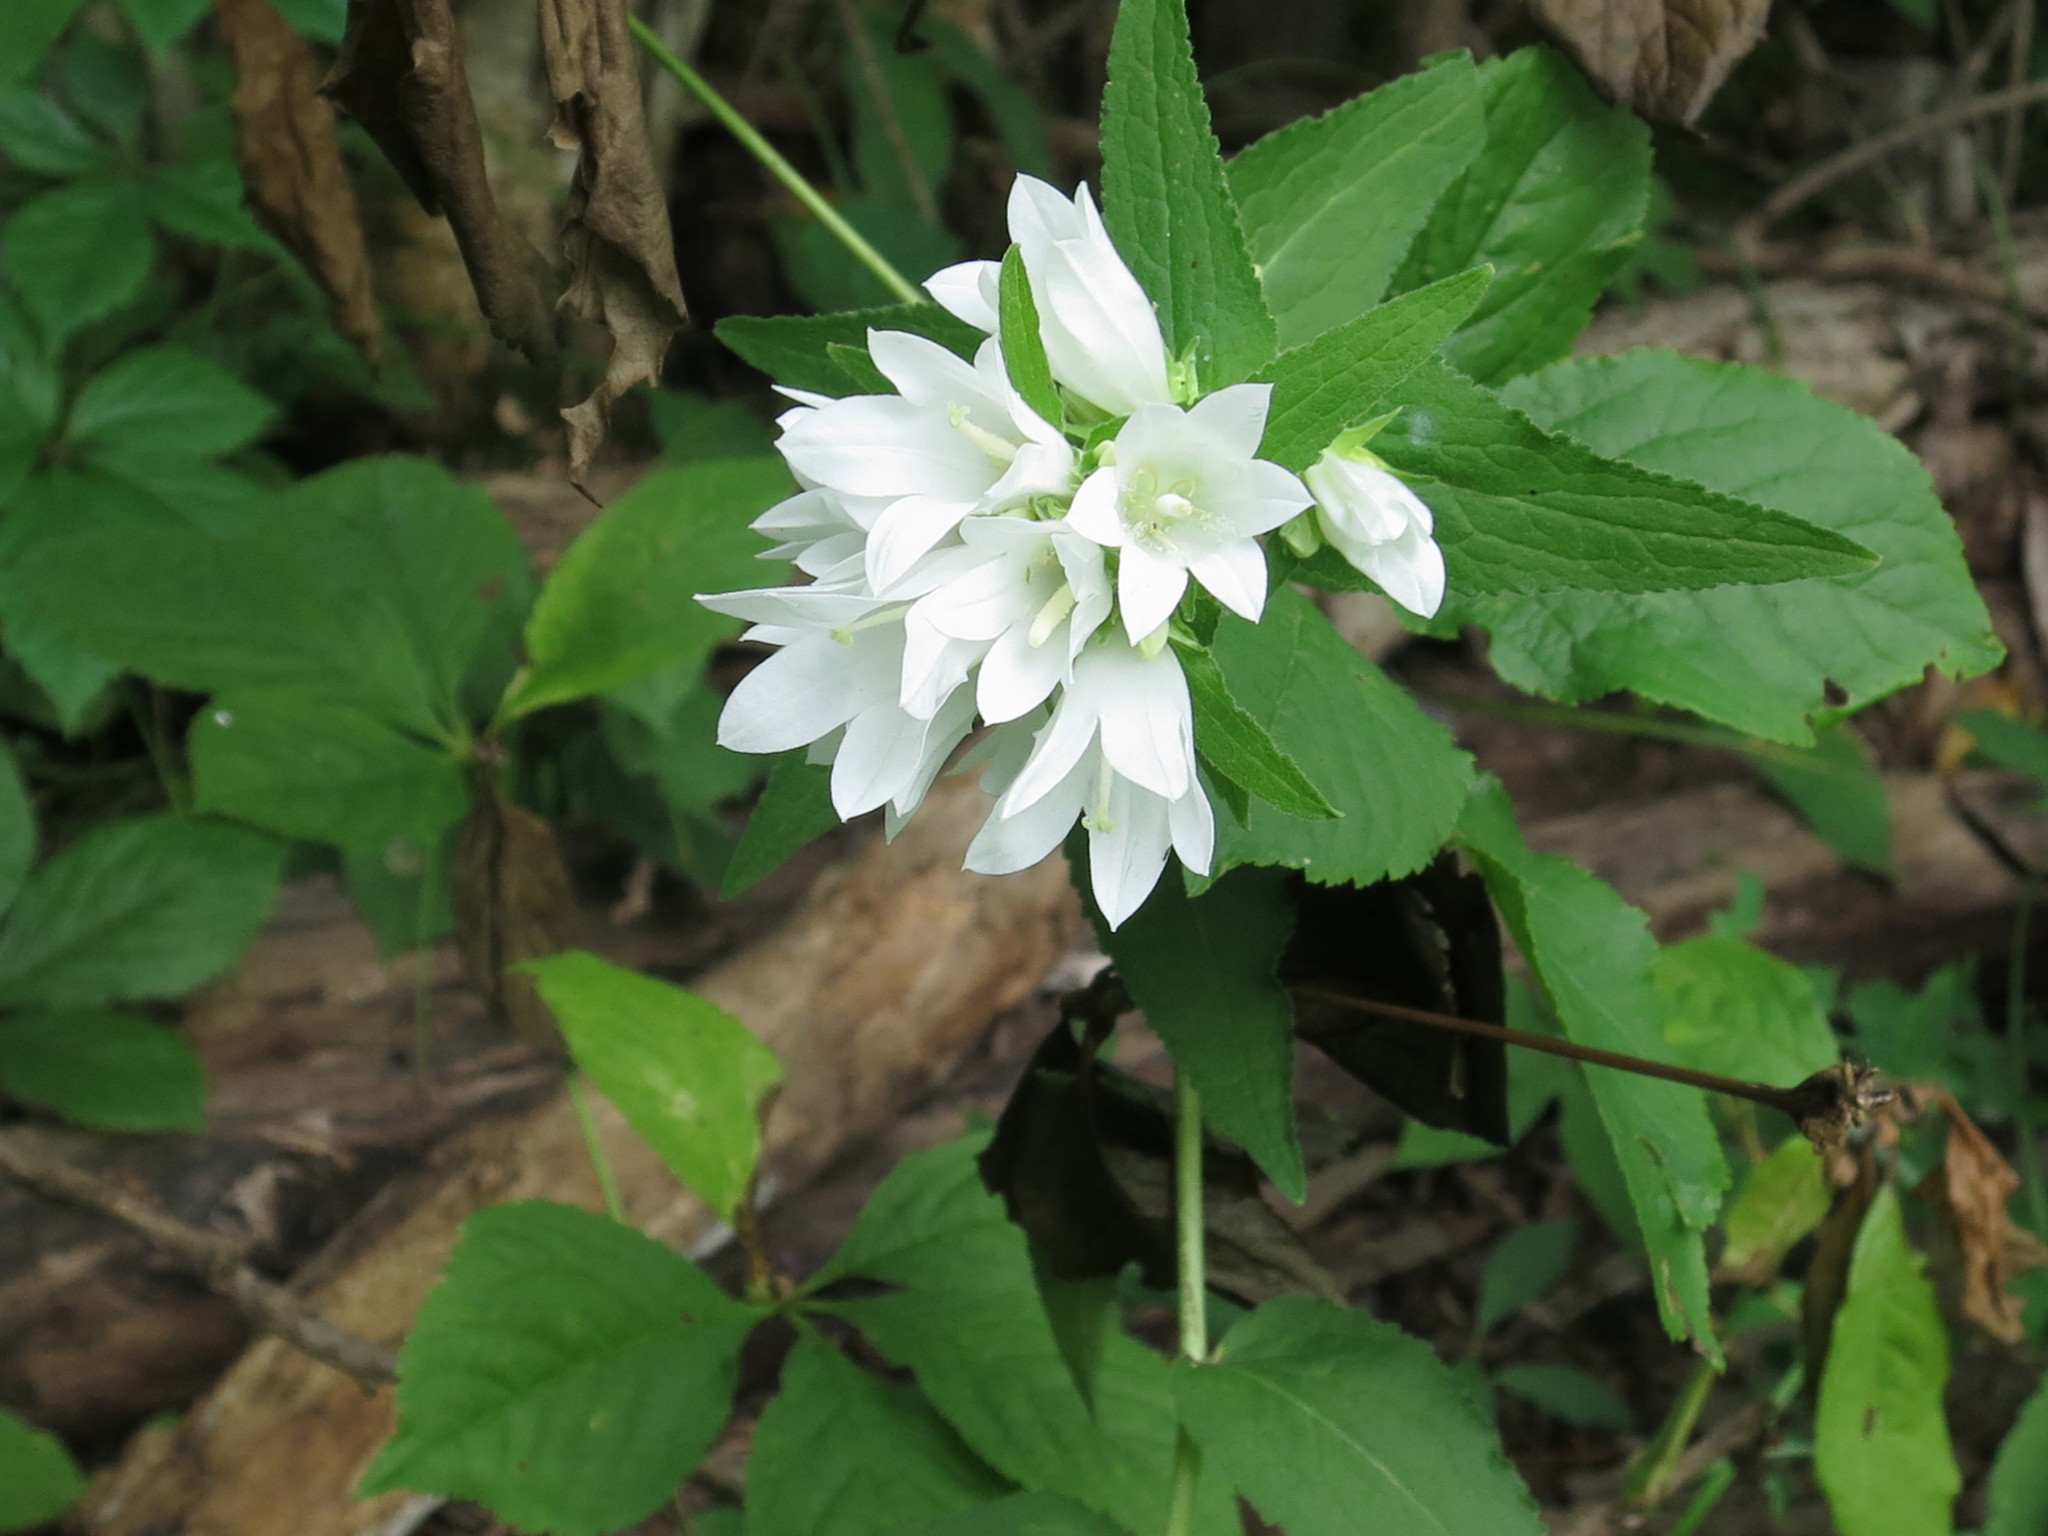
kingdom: Plantae
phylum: Tracheophyta
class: Magnoliopsida
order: Asterales
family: Campanulaceae
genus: Campanula
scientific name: Campanula glomerata
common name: Clustered bellflower
